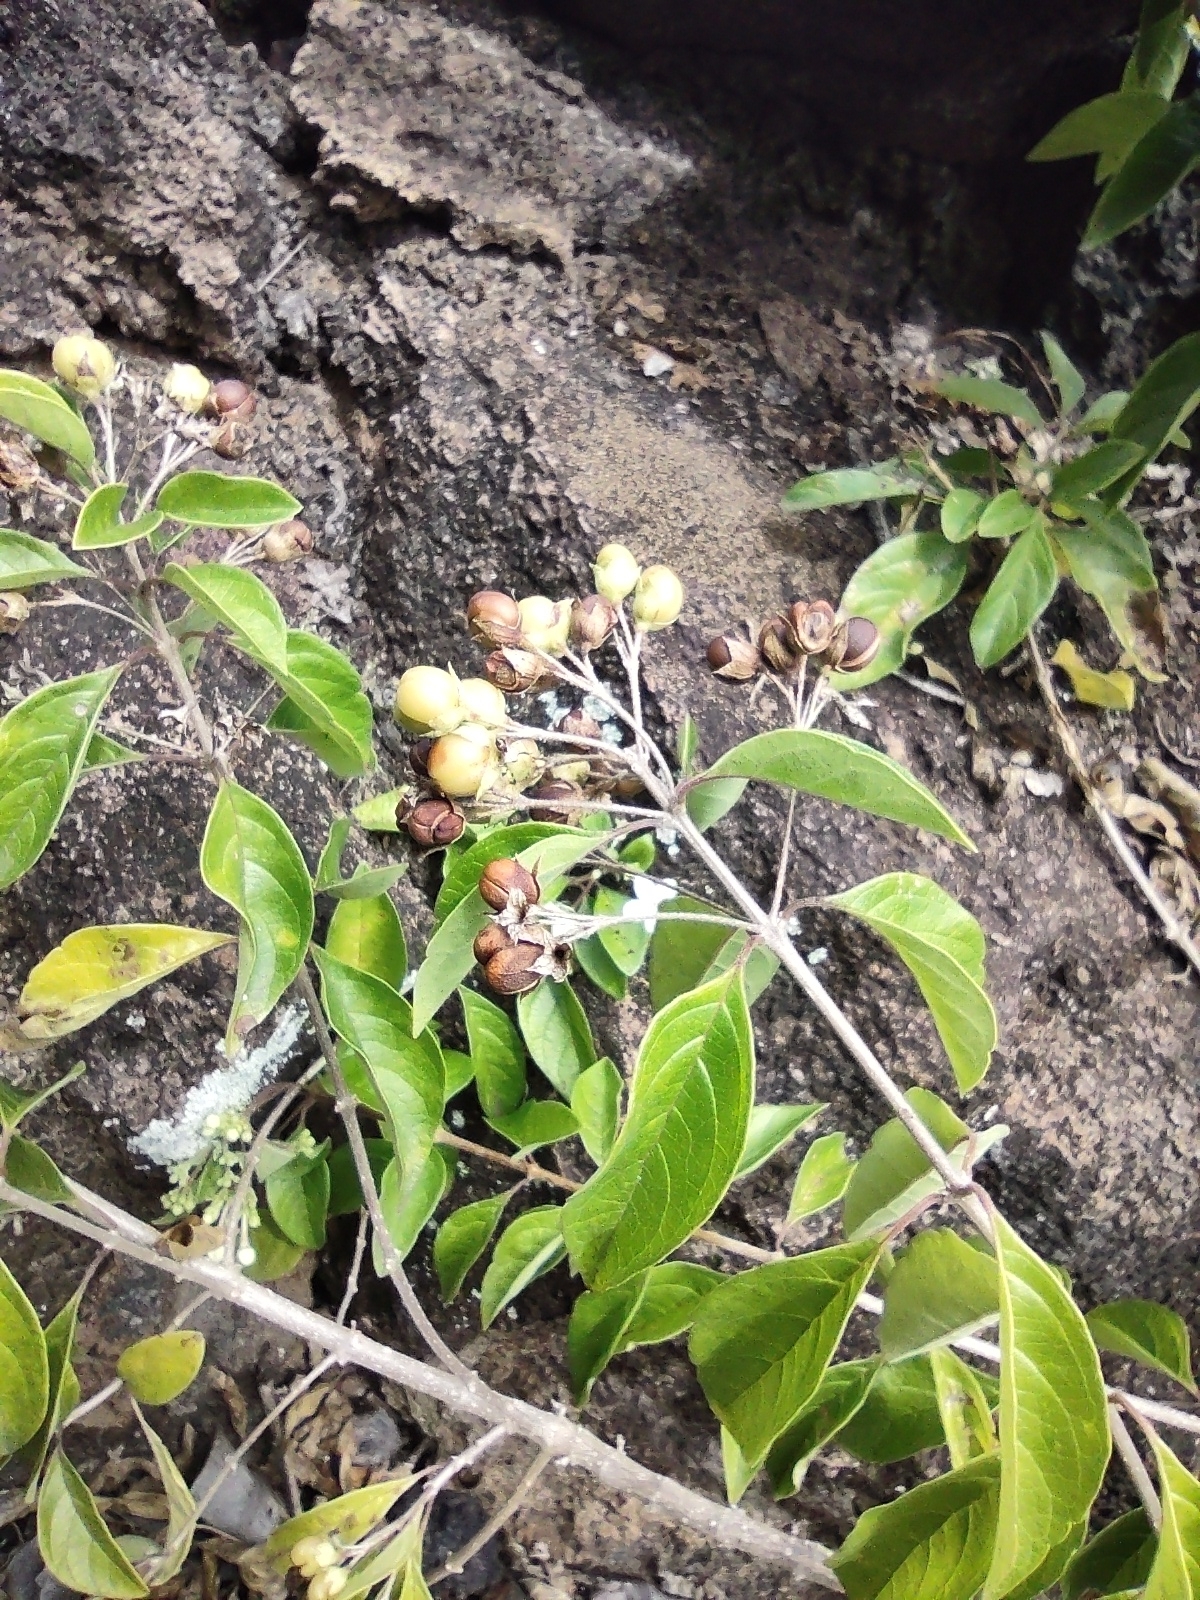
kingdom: Plantae
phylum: Tracheophyta
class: Magnoliopsida
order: Lamiales
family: Lamiaceae
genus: Volkameria
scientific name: Volkameria mollis
